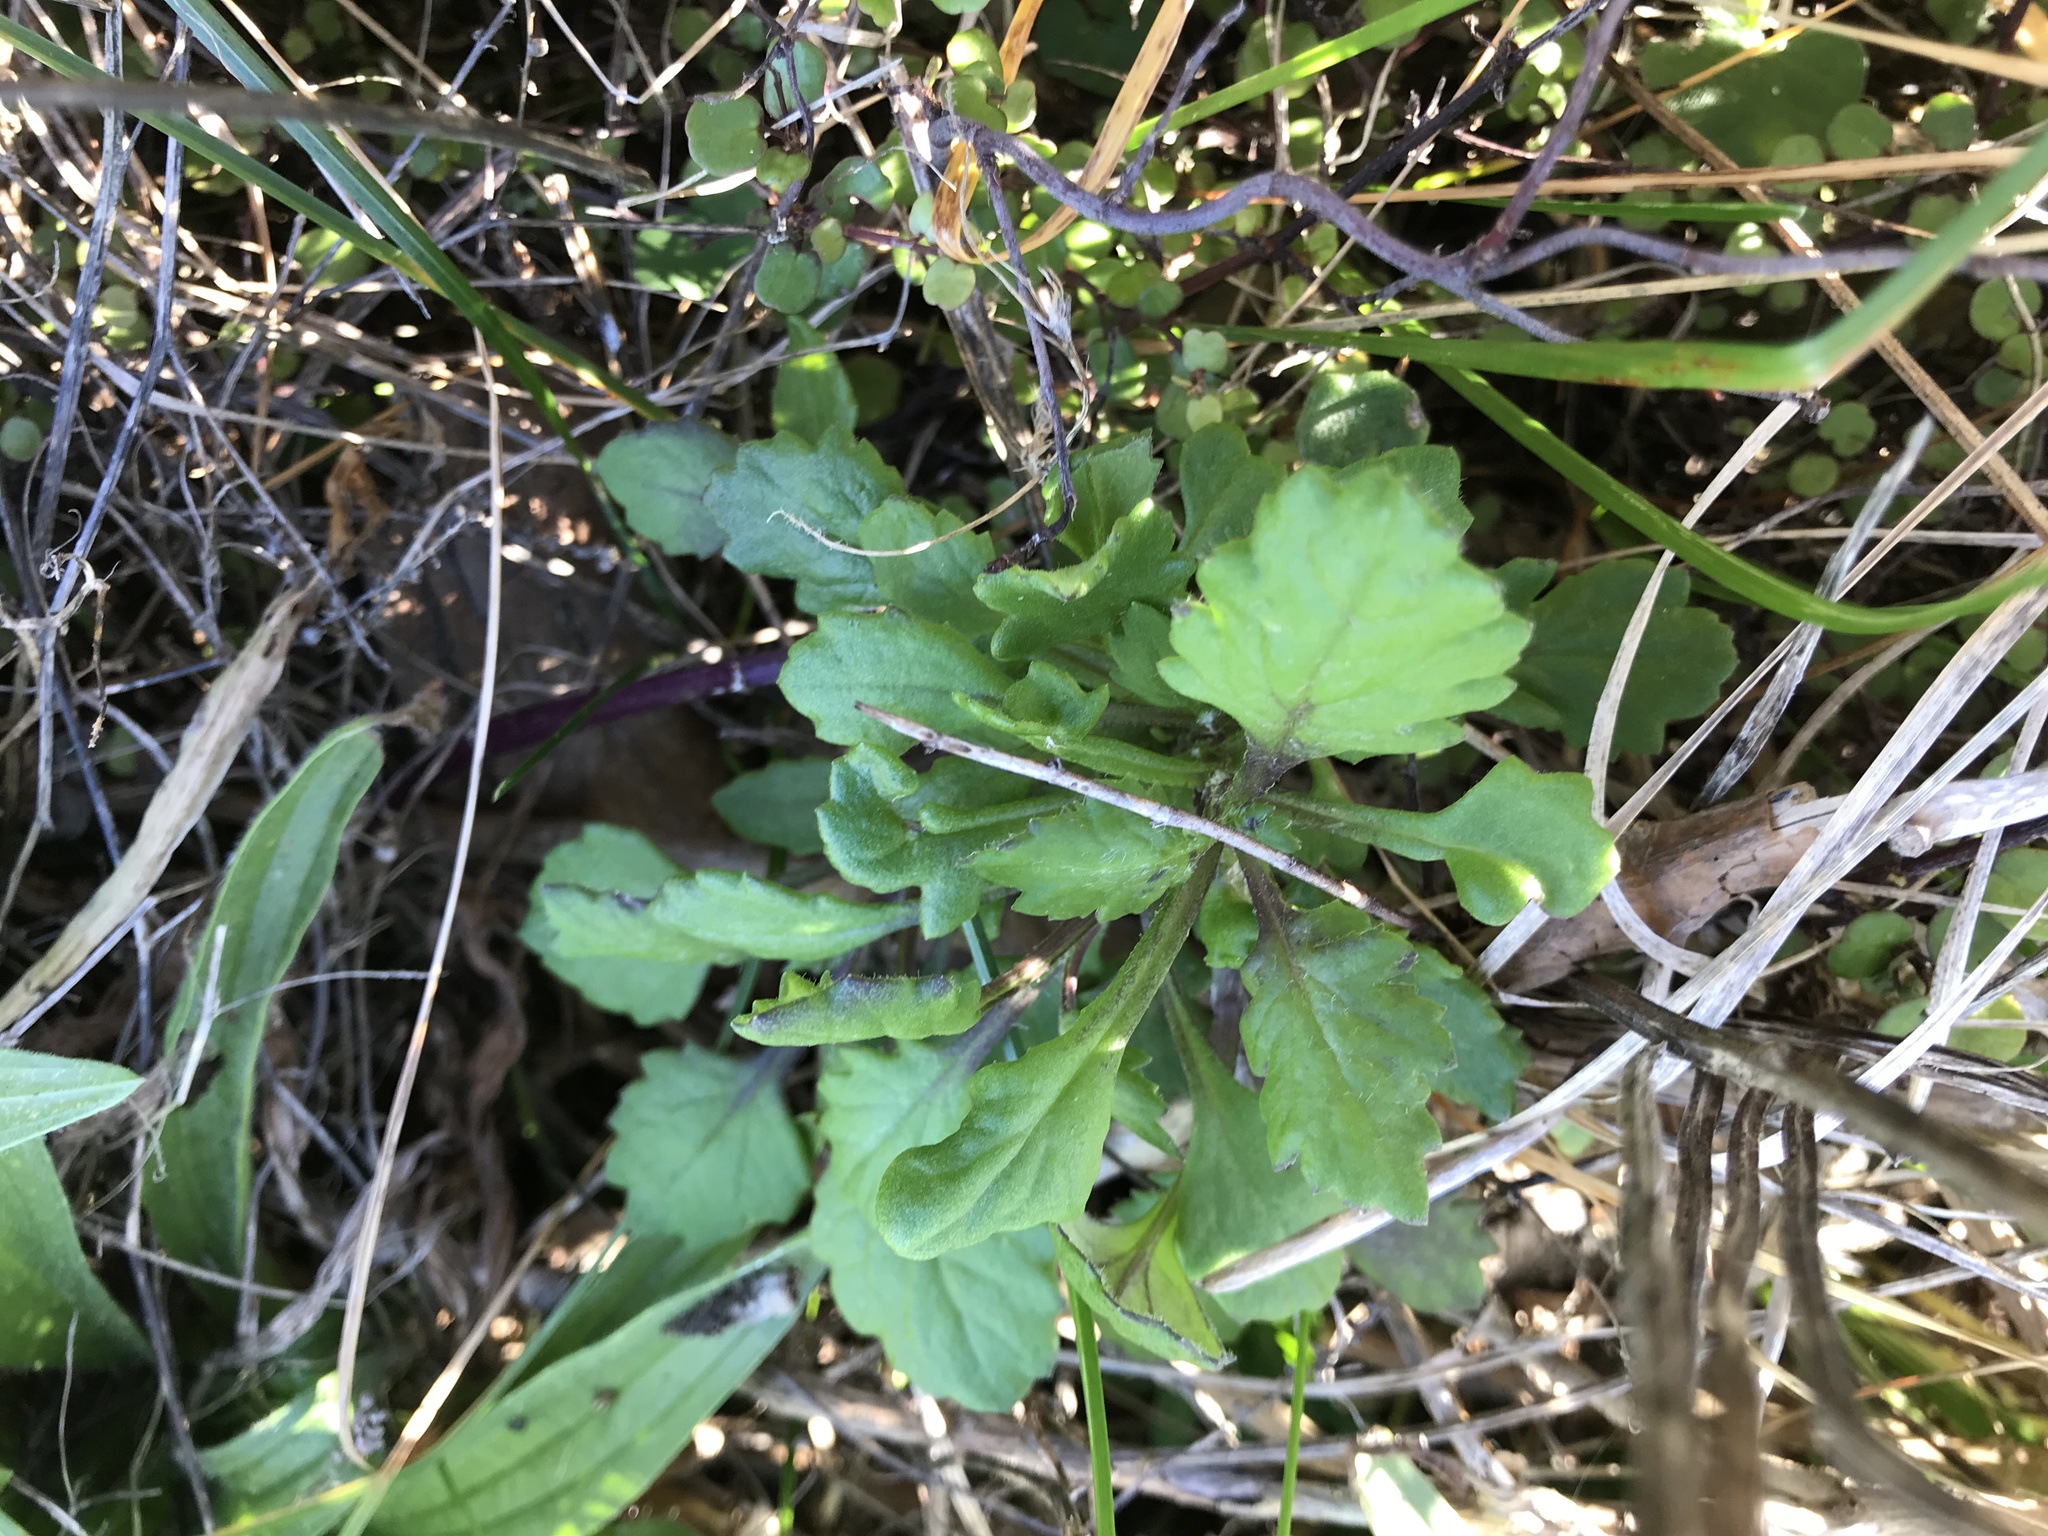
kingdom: Plantae
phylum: Tracheophyta
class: Magnoliopsida
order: Asterales
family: Asteraceae
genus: Senecio
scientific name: Senecio elegans
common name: Purple groundsel
